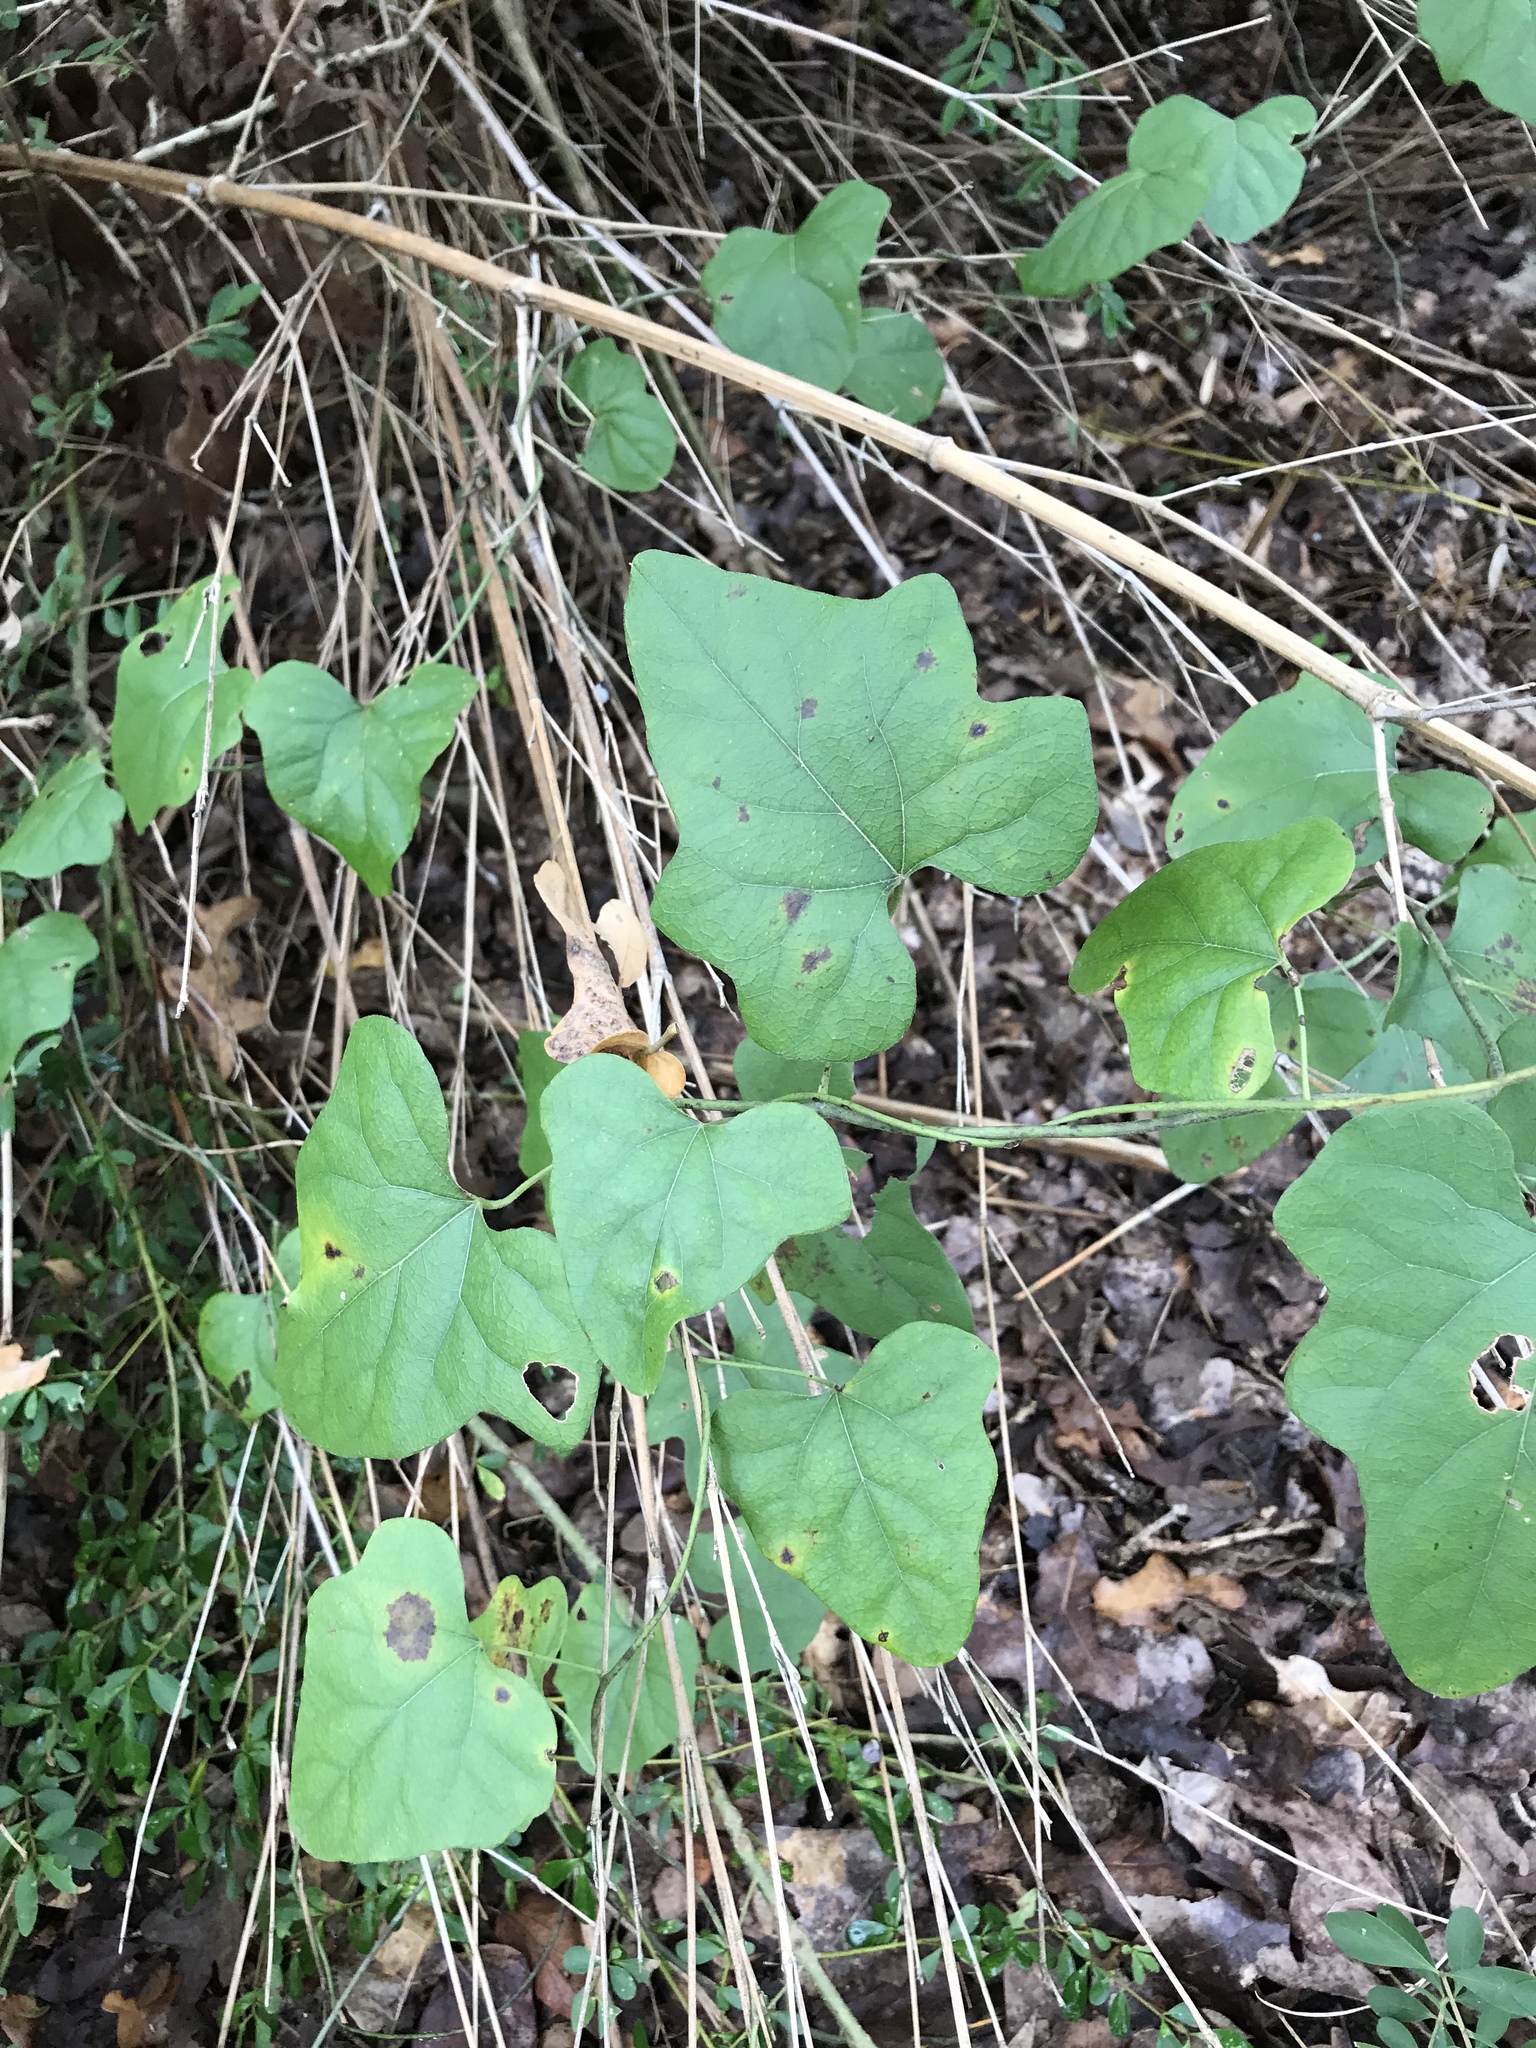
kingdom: Plantae
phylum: Tracheophyta
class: Magnoliopsida
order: Ranunculales
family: Menispermaceae
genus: Cocculus
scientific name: Cocculus carolinus
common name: Carolina moonseed
